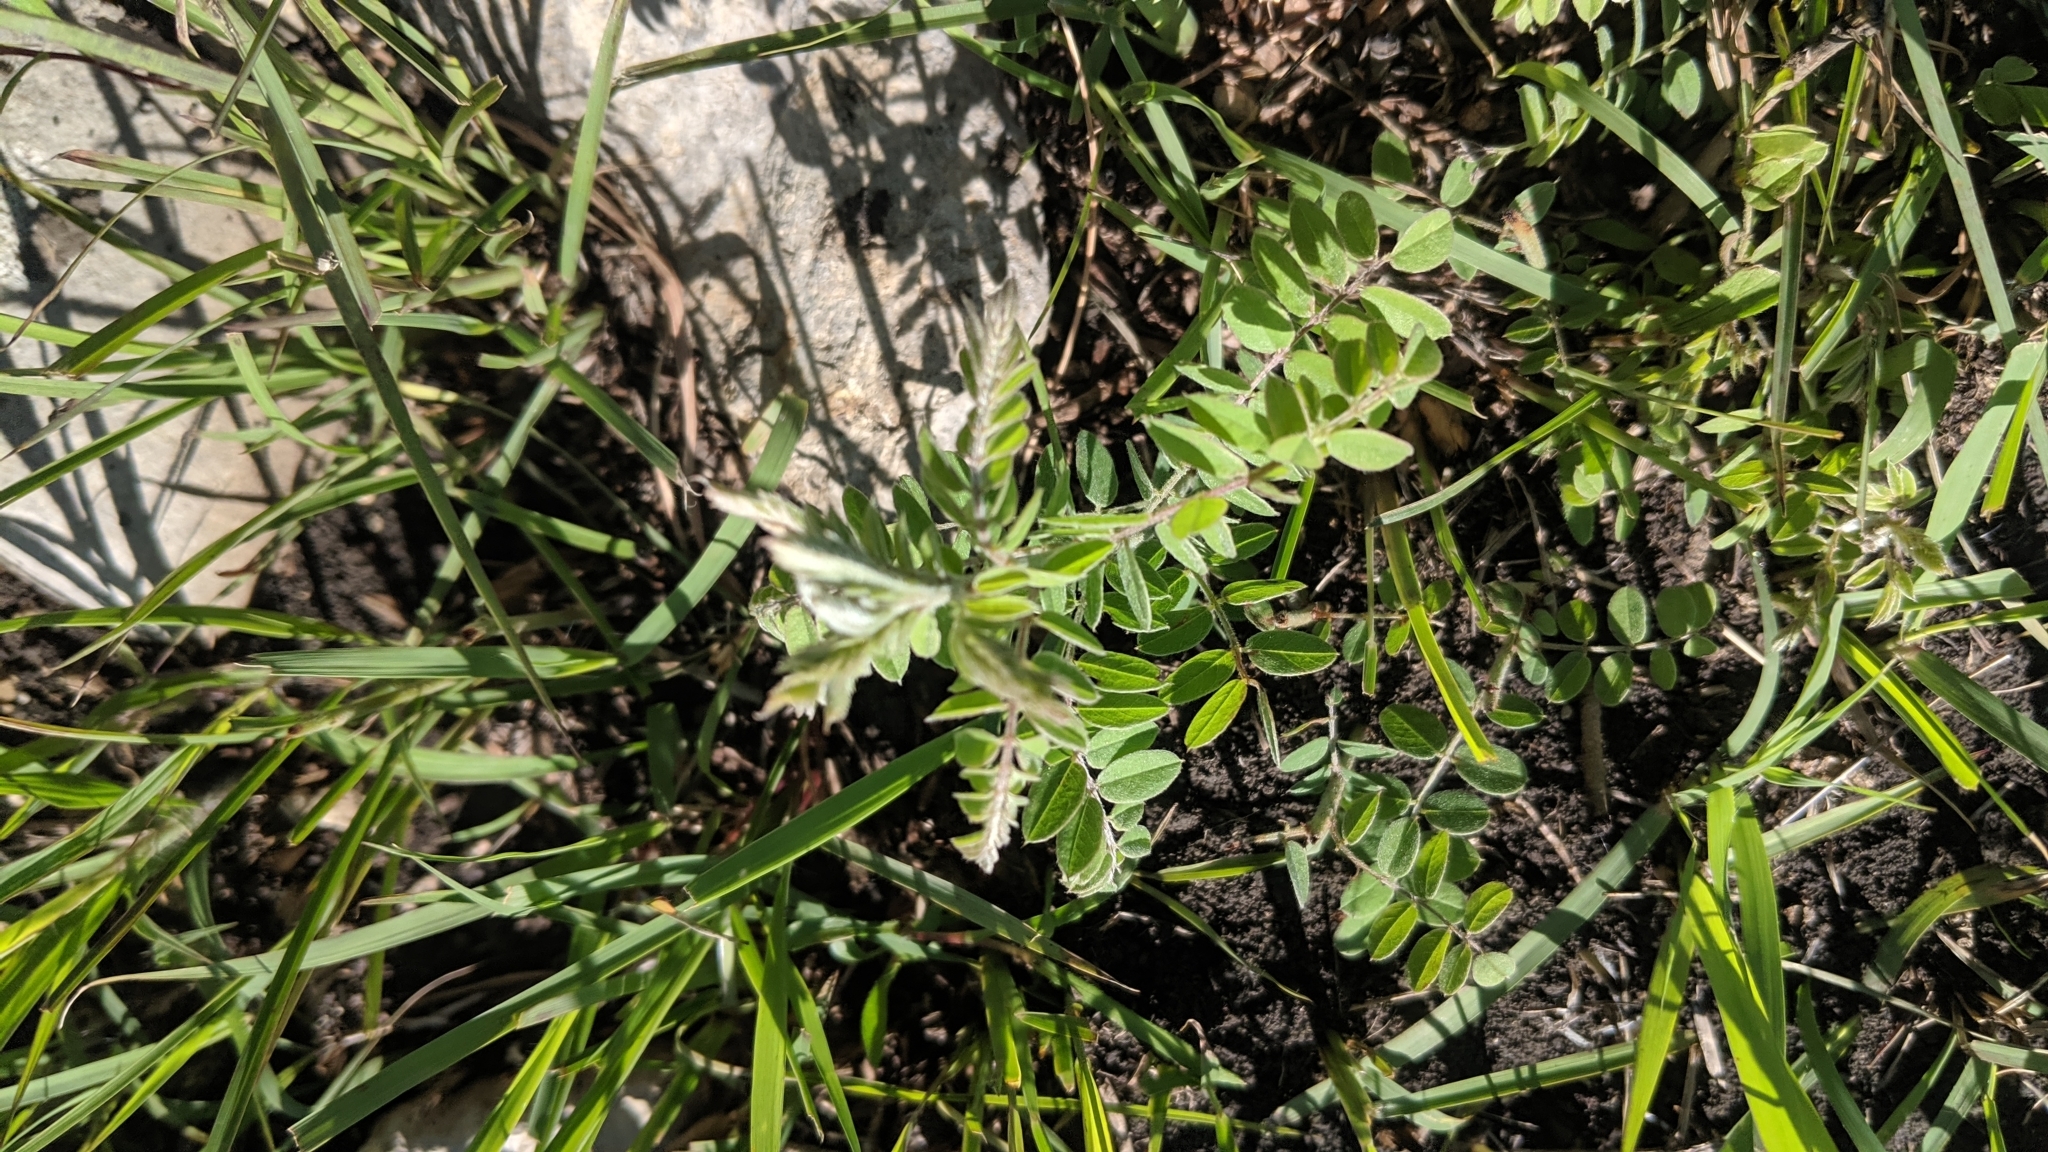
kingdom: Plantae
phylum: Tracheophyta
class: Magnoliopsida
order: Fabales
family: Fabaceae
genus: Amorpha
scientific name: Amorpha canescens
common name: Leadplant
